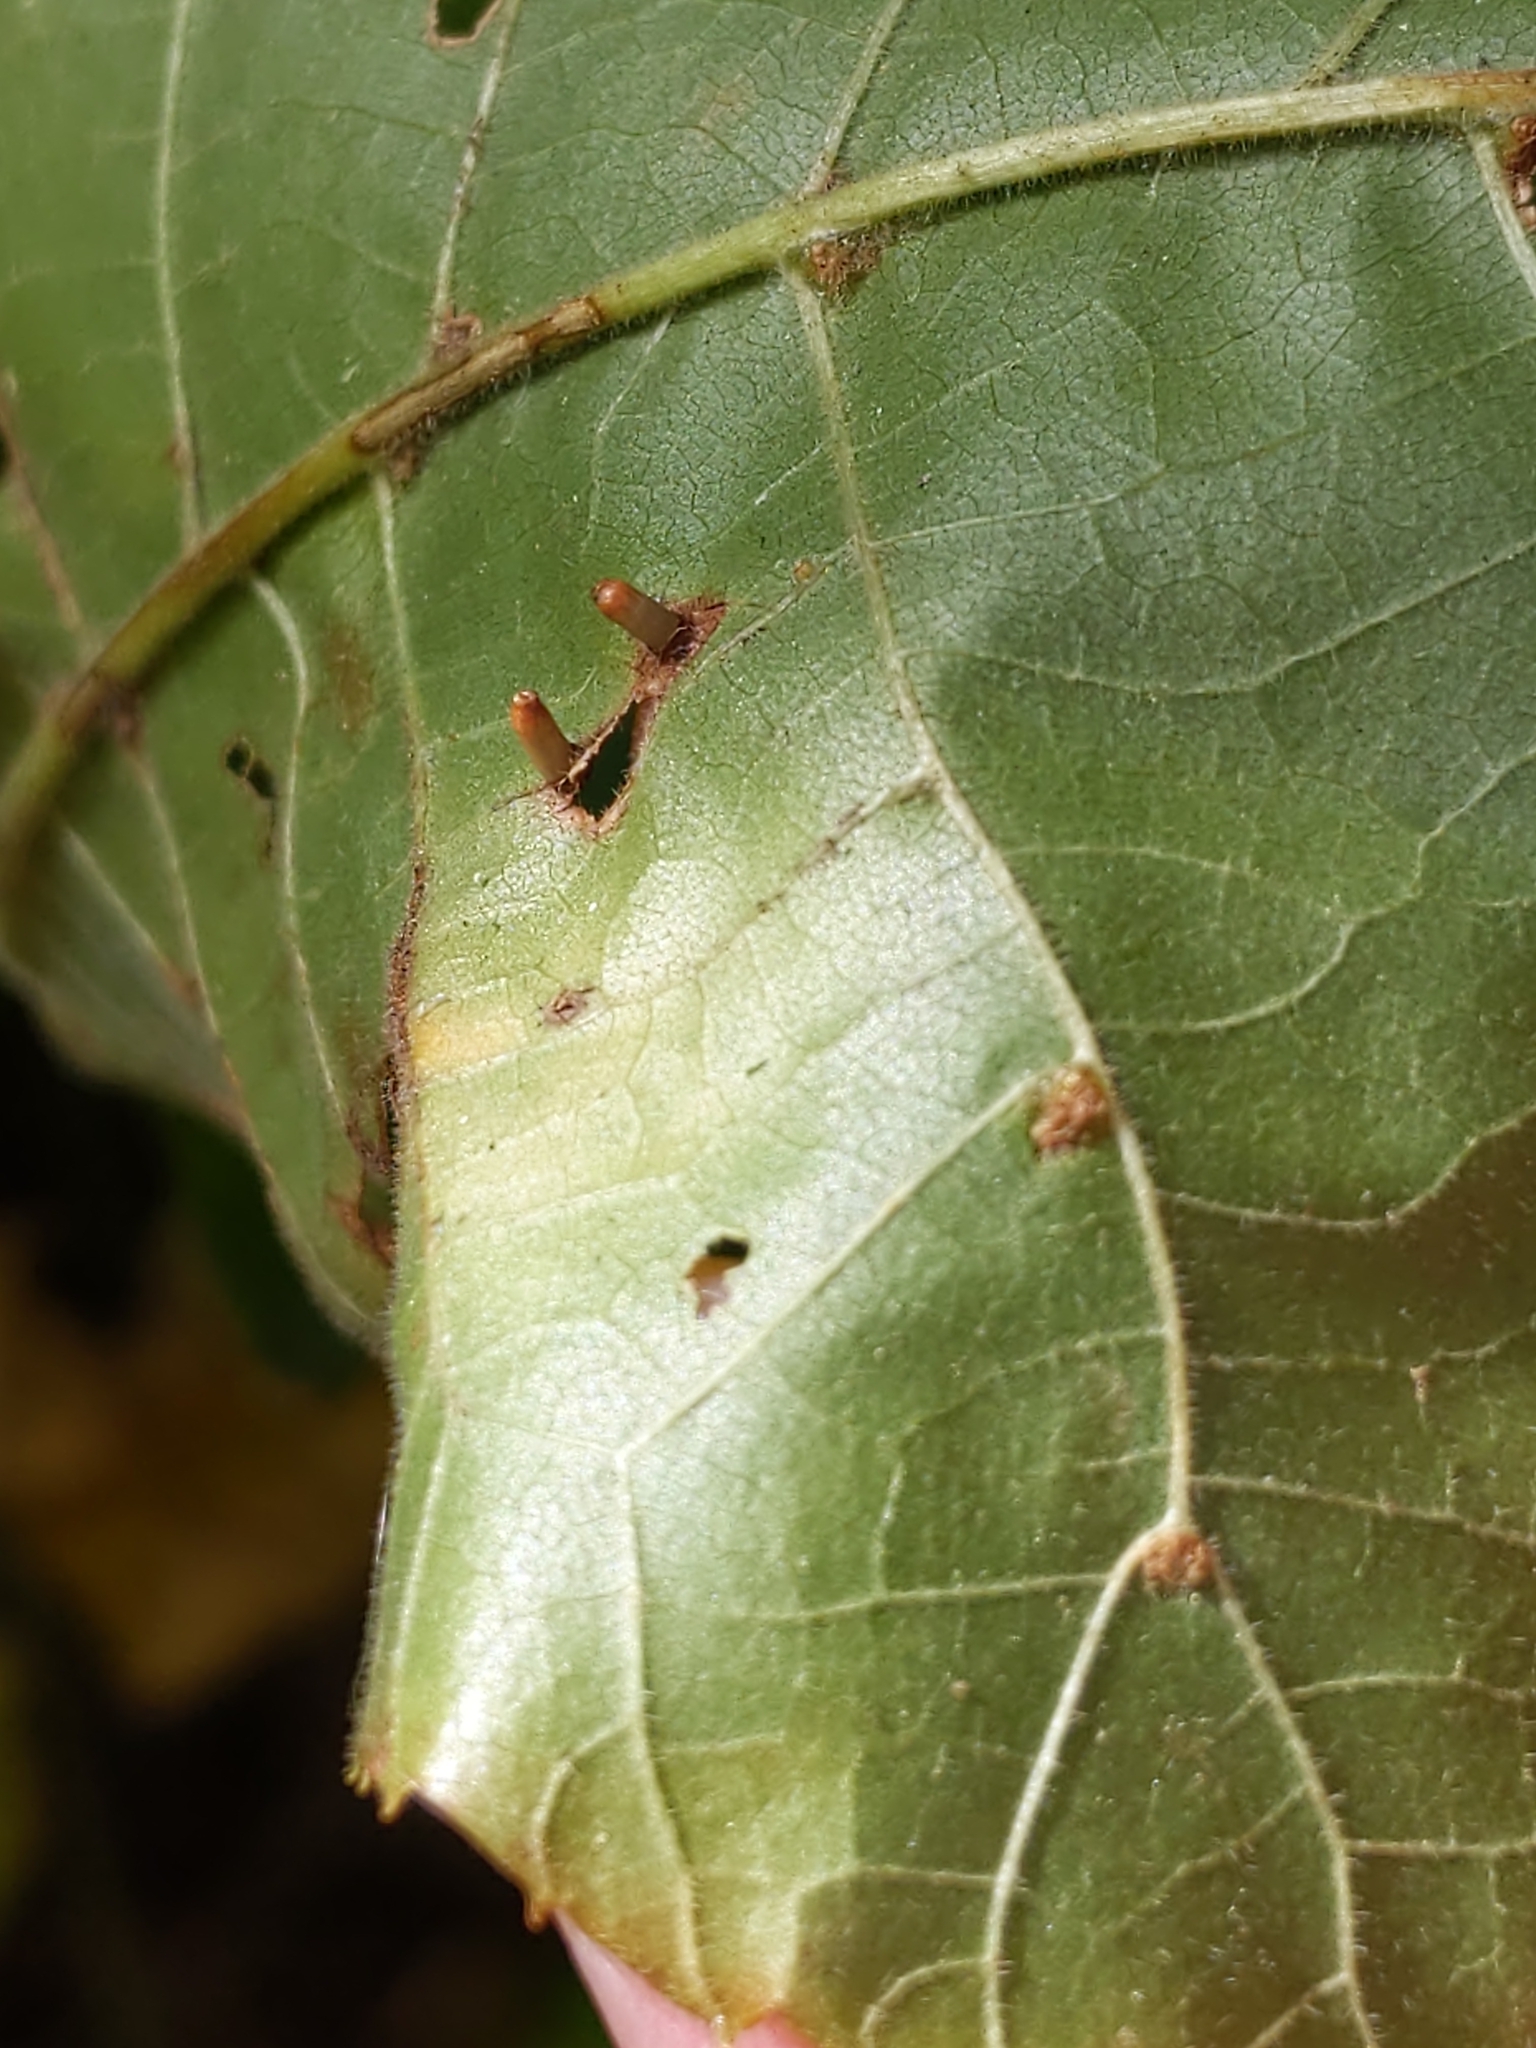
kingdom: Animalia
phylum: Arthropoda
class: Insecta
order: Diptera
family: Cecidomyiidae
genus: Caryomyia
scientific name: Caryomyia tubicola
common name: Hickory bullet gall midge
